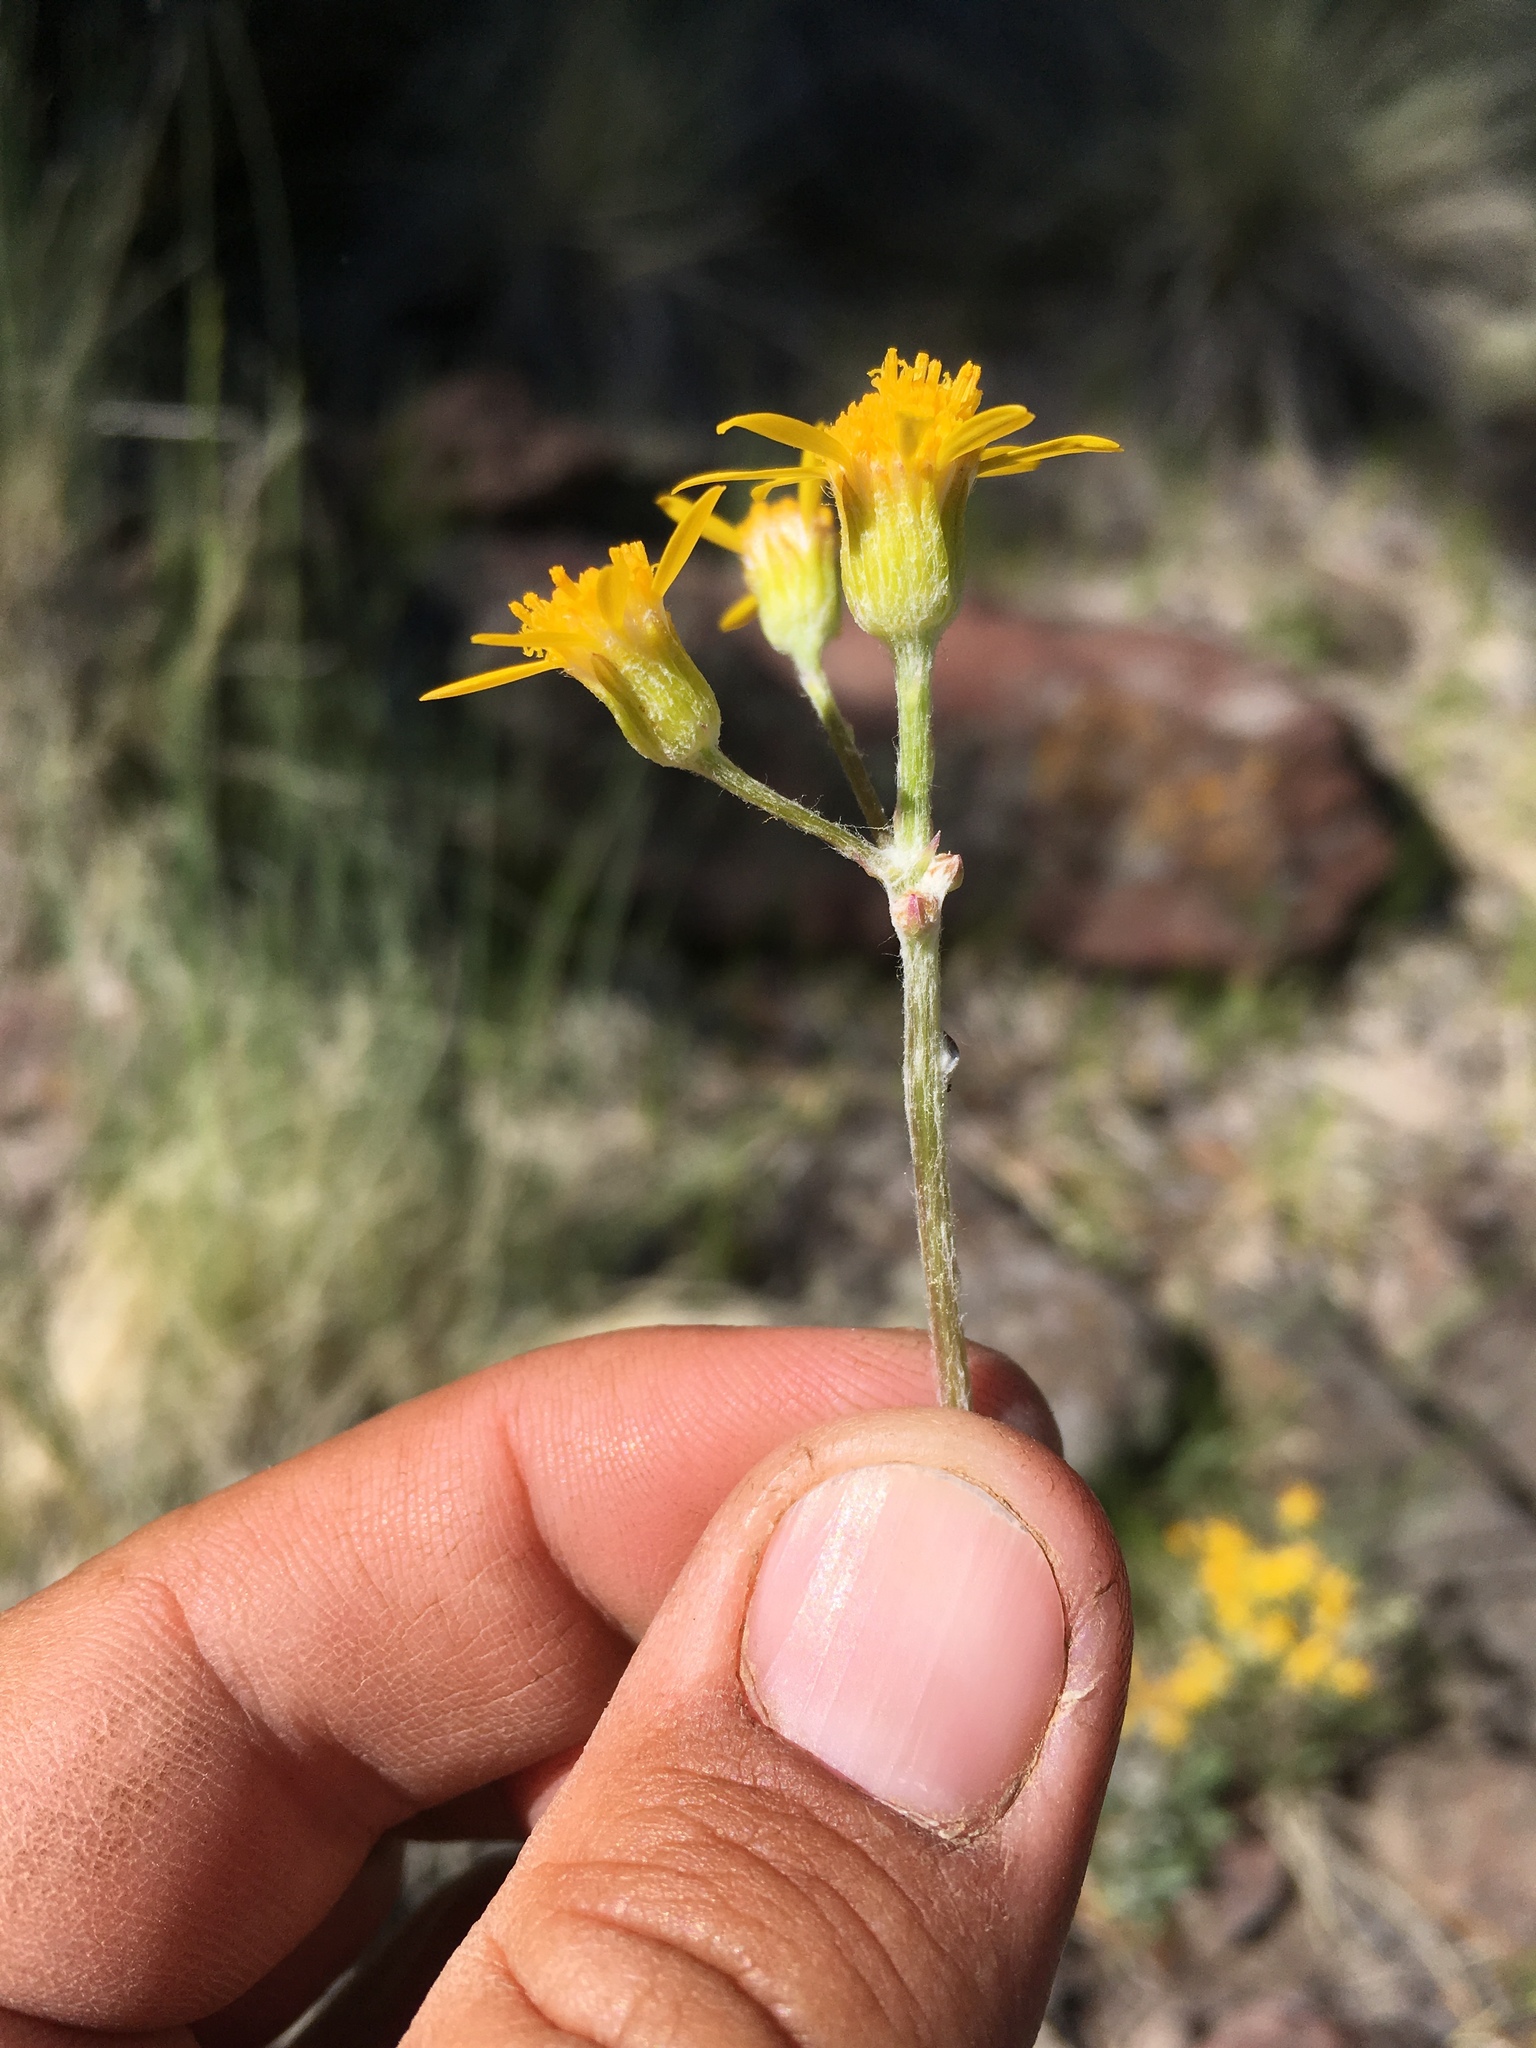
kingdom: Plantae
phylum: Tracheophyta
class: Magnoliopsida
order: Asterales
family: Asteraceae
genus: Packera
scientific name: Packera neomexicana
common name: New mexico butterweed
